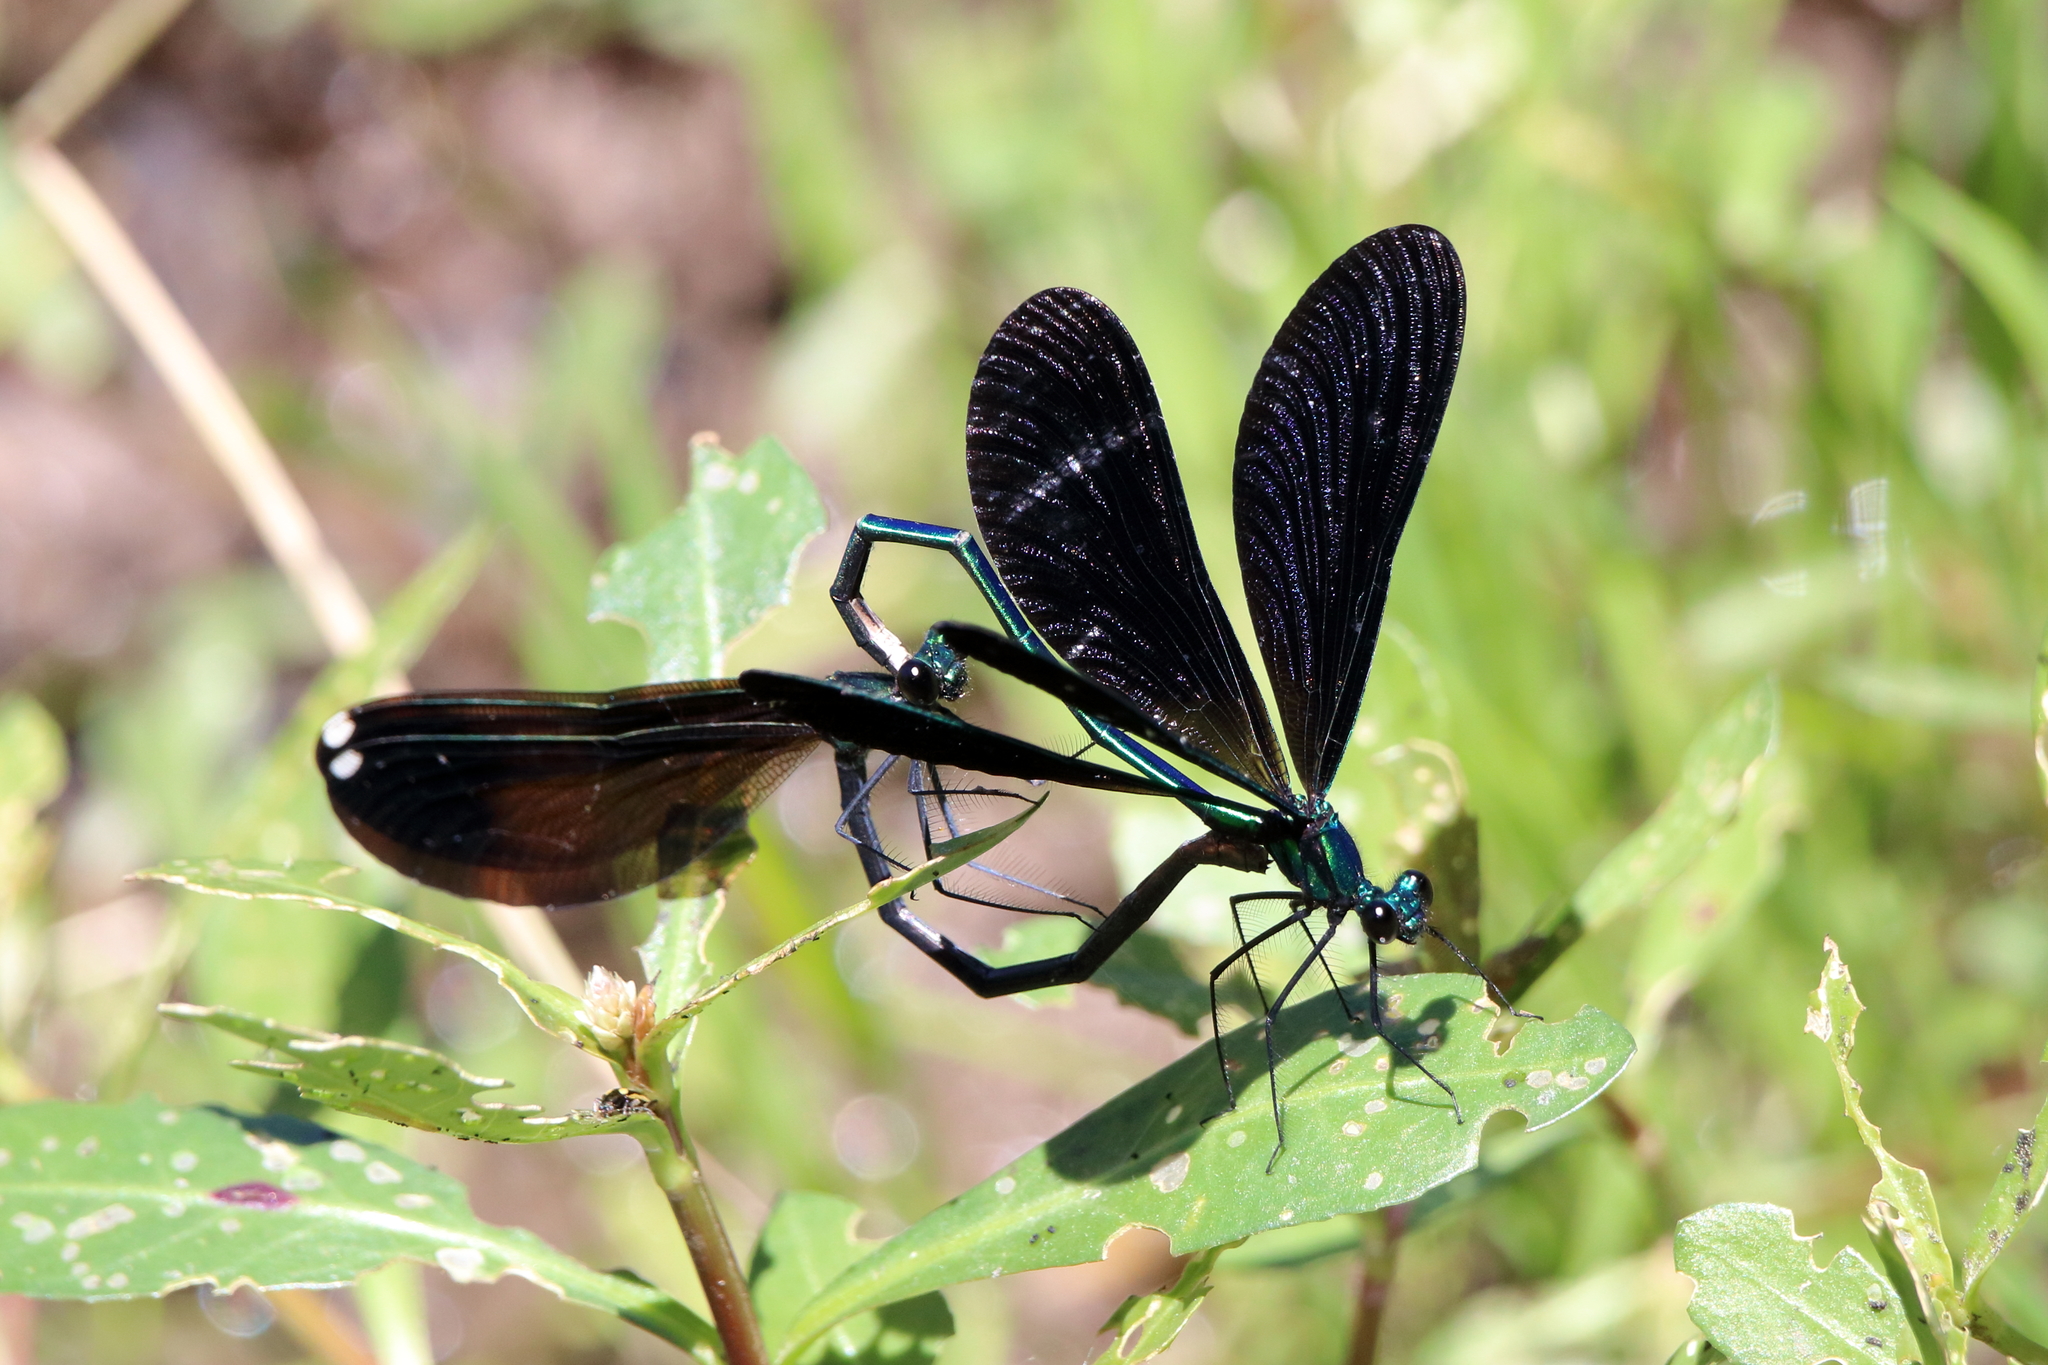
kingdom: Animalia
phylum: Arthropoda
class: Insecta
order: Odonata
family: Calopterygidae
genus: Calopteryx
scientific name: Calopteryx maculata
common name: Ebony jewelwing
